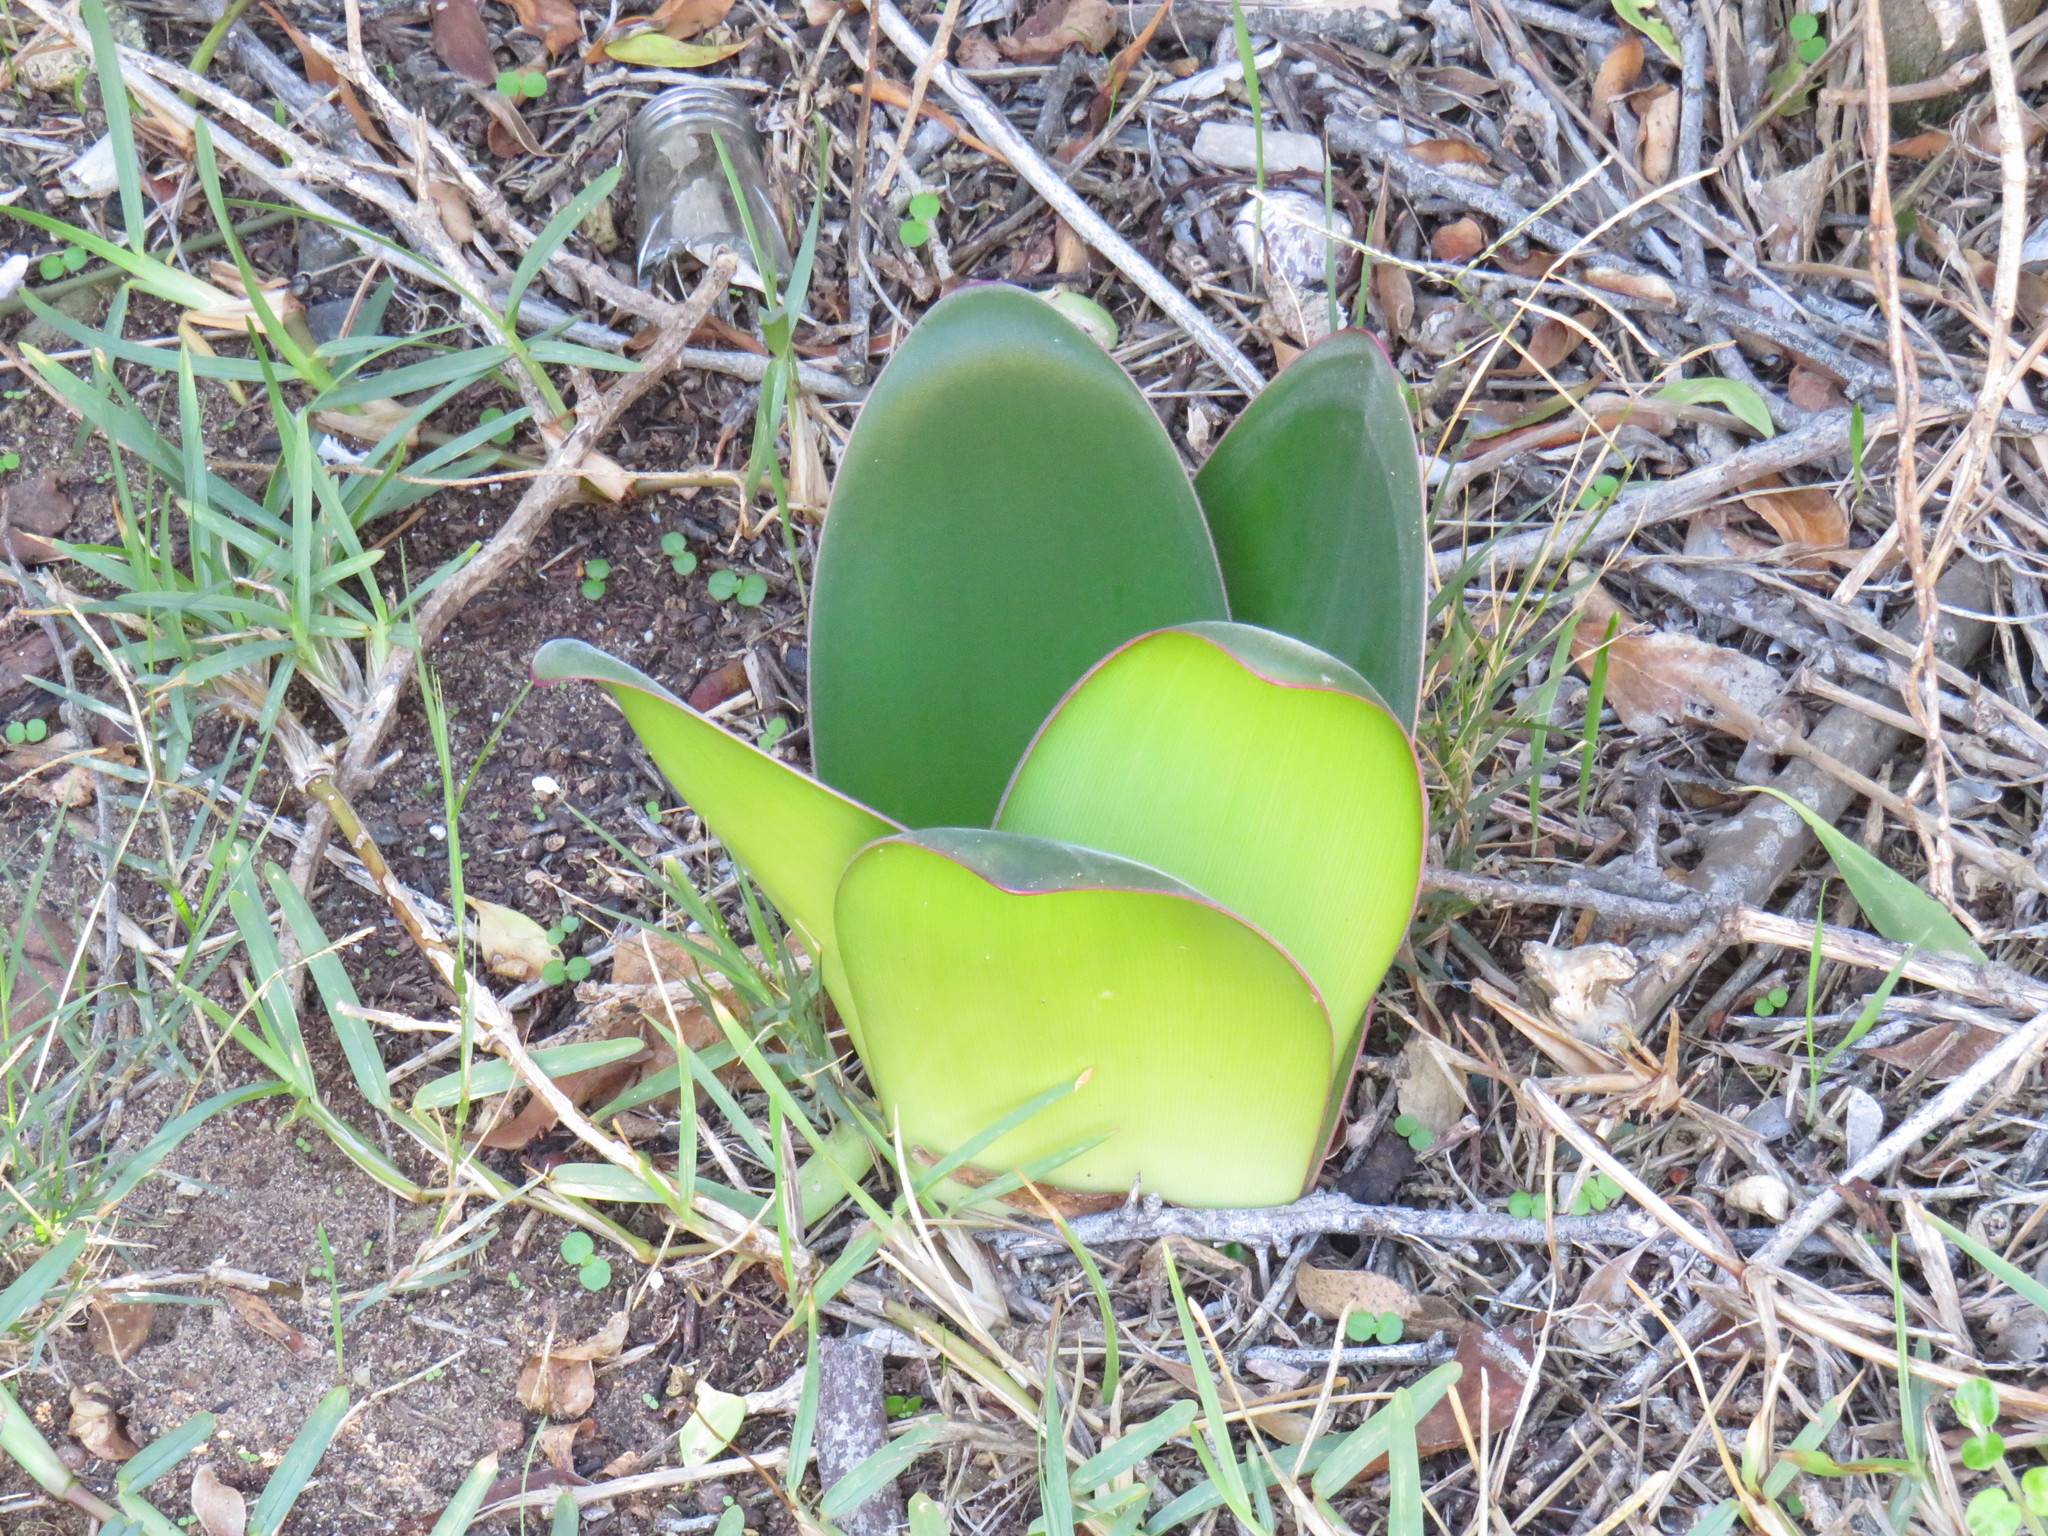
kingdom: Plantae
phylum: Tracheophyta
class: Liliopsida
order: Asparagales
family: Amaryllidaceae
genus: Brunsvigia
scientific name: Brunsvigia orientalis
